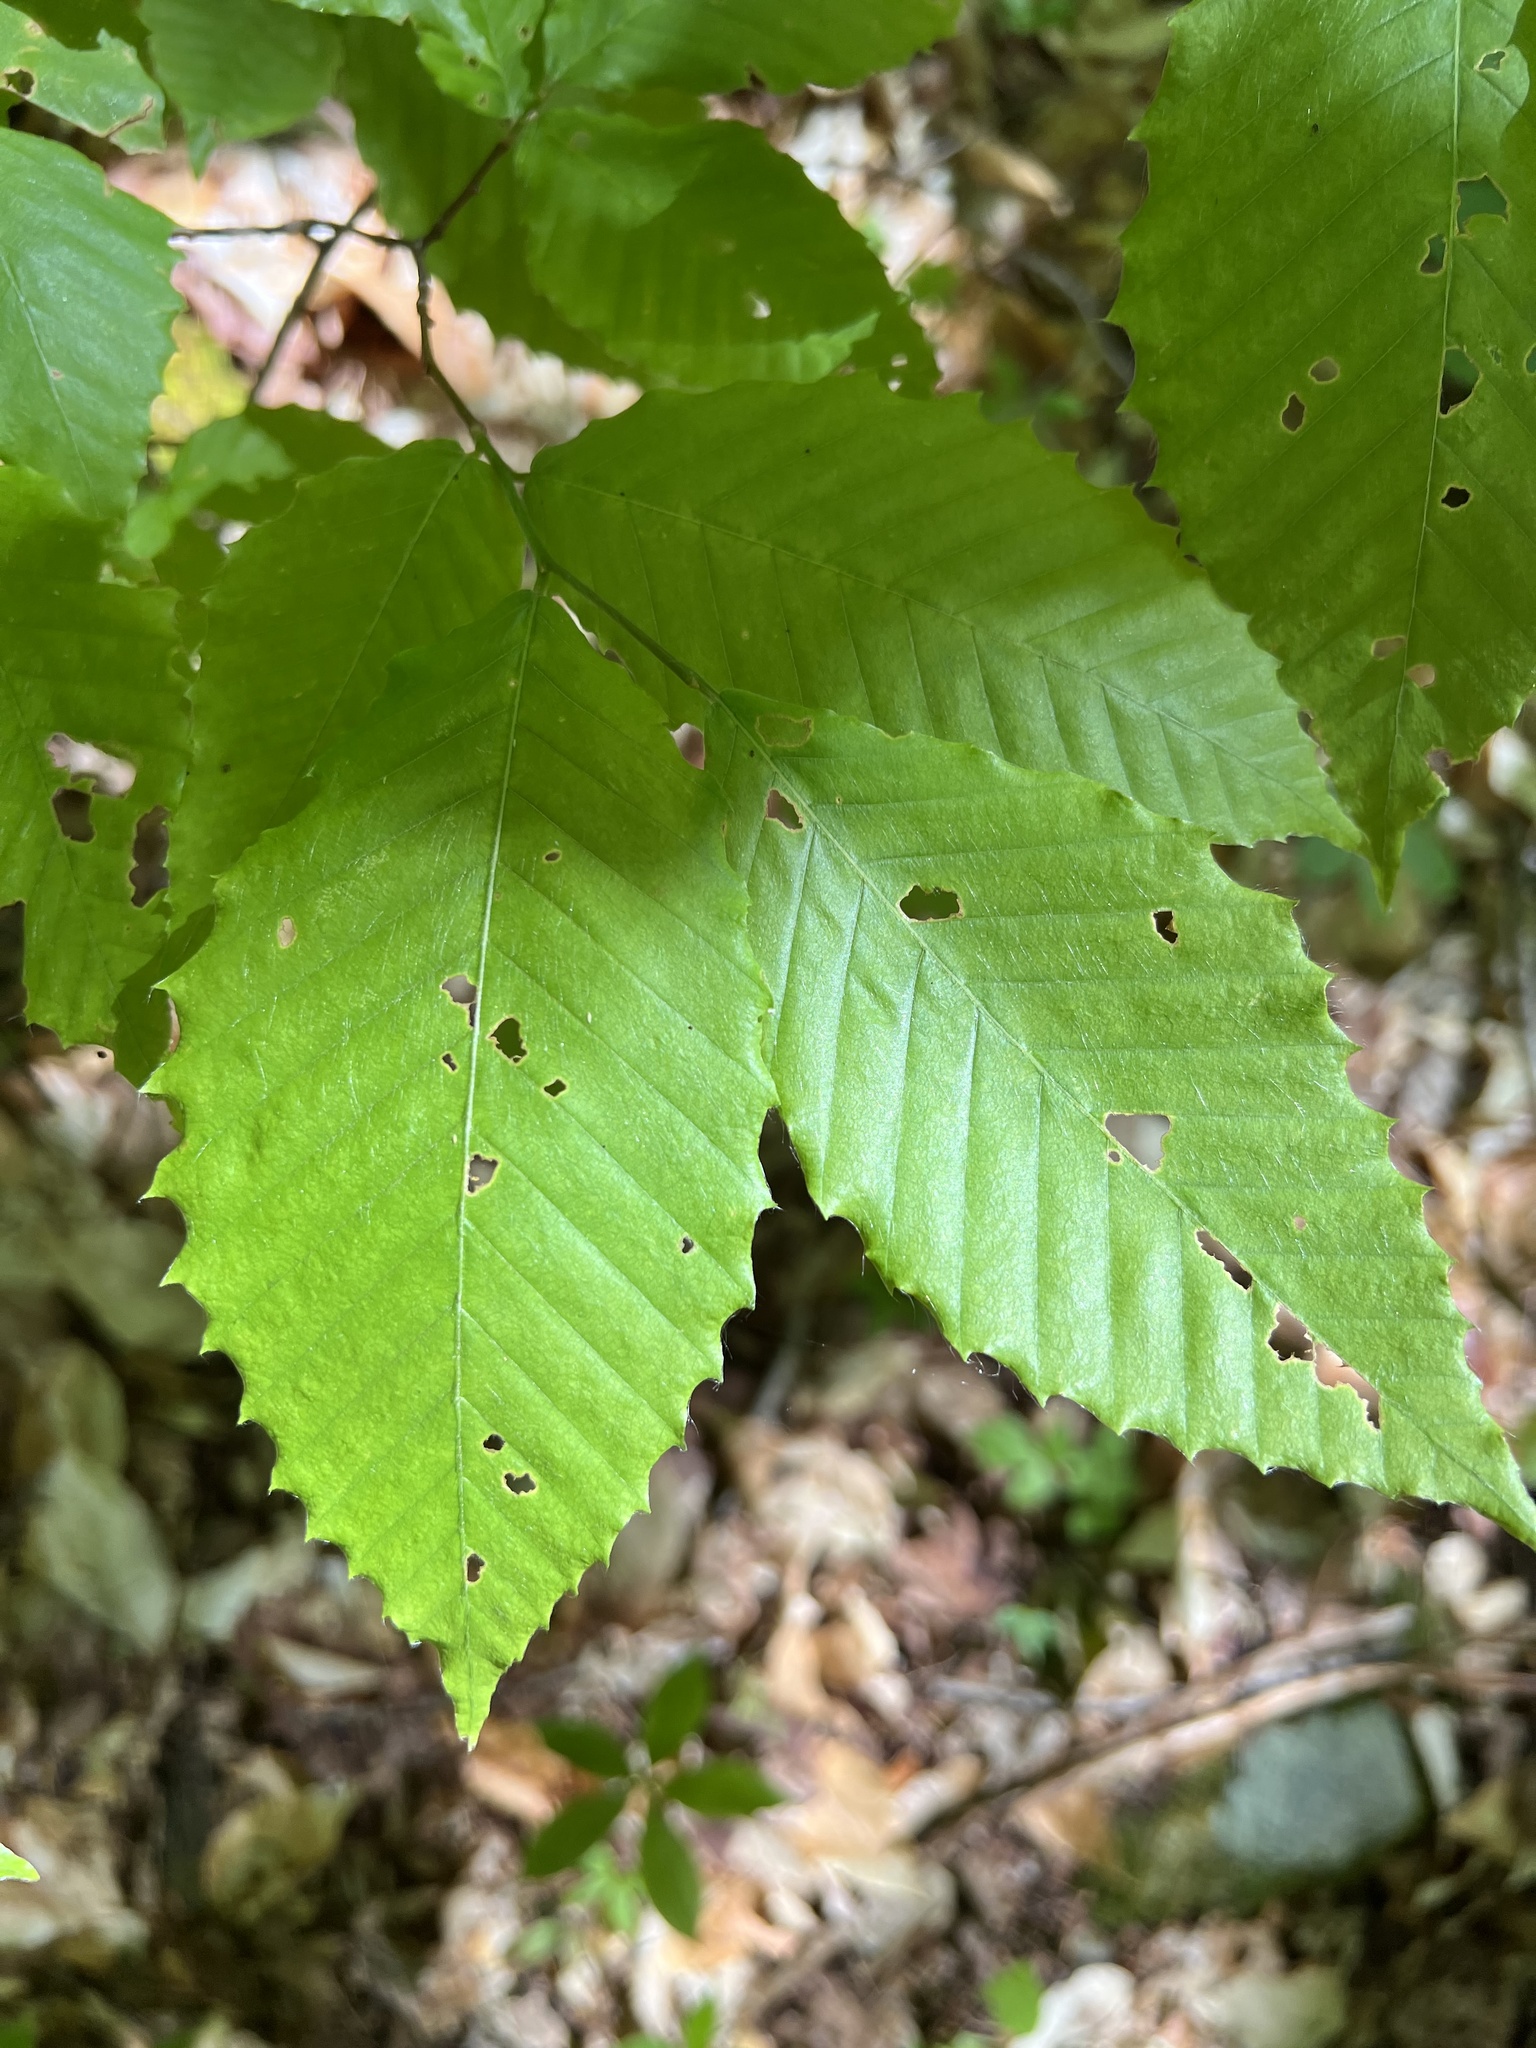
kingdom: Plantae
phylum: Tracheophyta
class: Magnoliopsida
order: Fagales
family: Fagaceae
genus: Fagus
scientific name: Fagus grandifolia
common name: American beech
